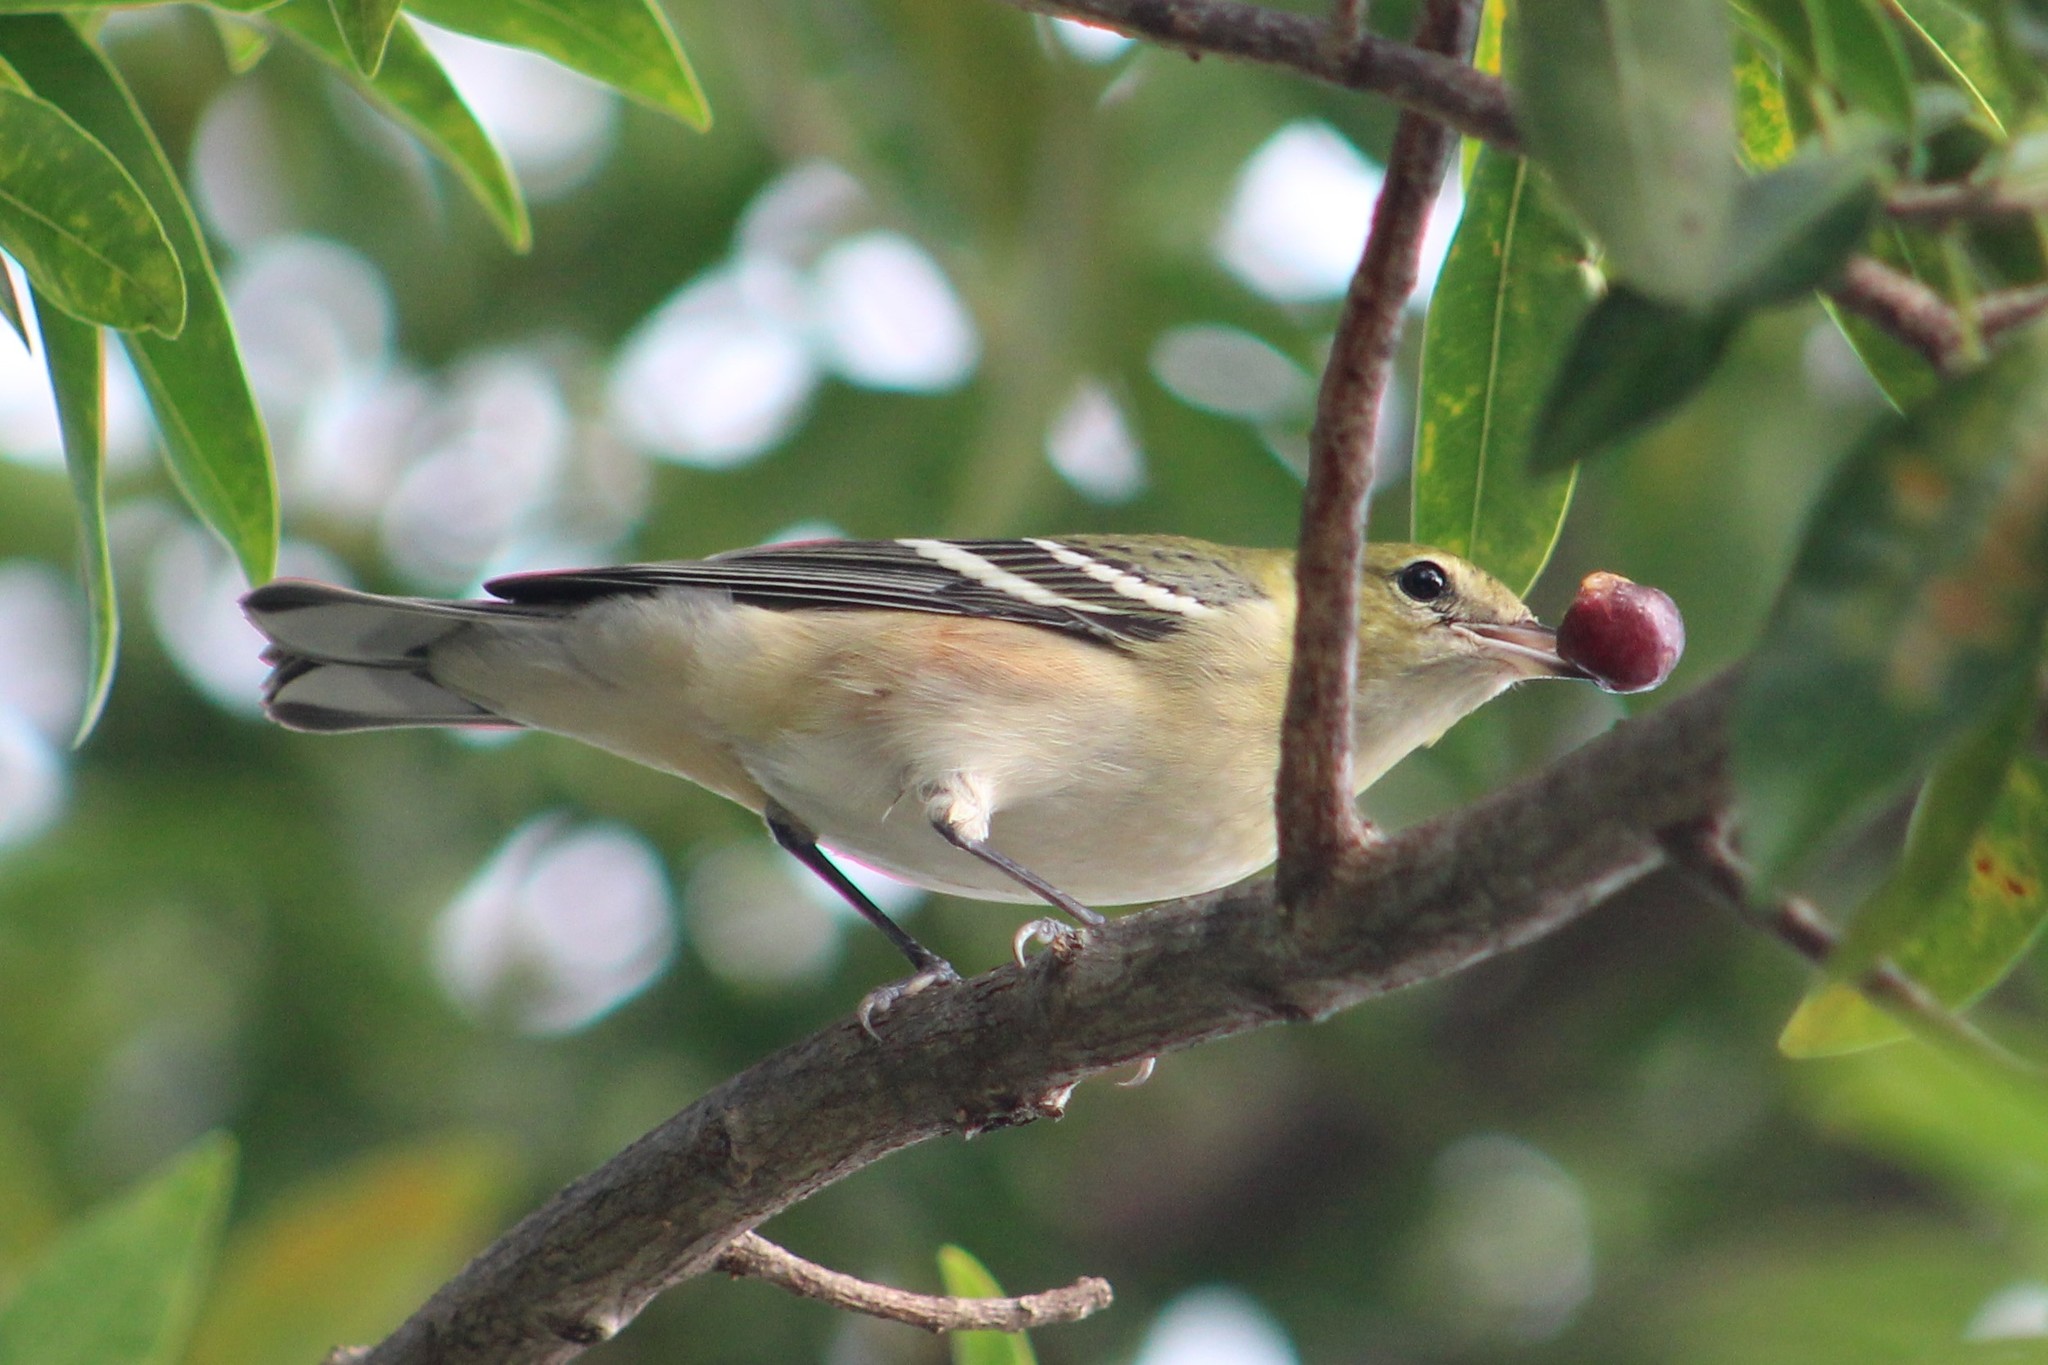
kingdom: Animalia
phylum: Chordata
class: Aves
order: Passeriformes
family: Parulidae
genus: Setophaga
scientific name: Setophaga castanea
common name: Bay-breasted warbler
